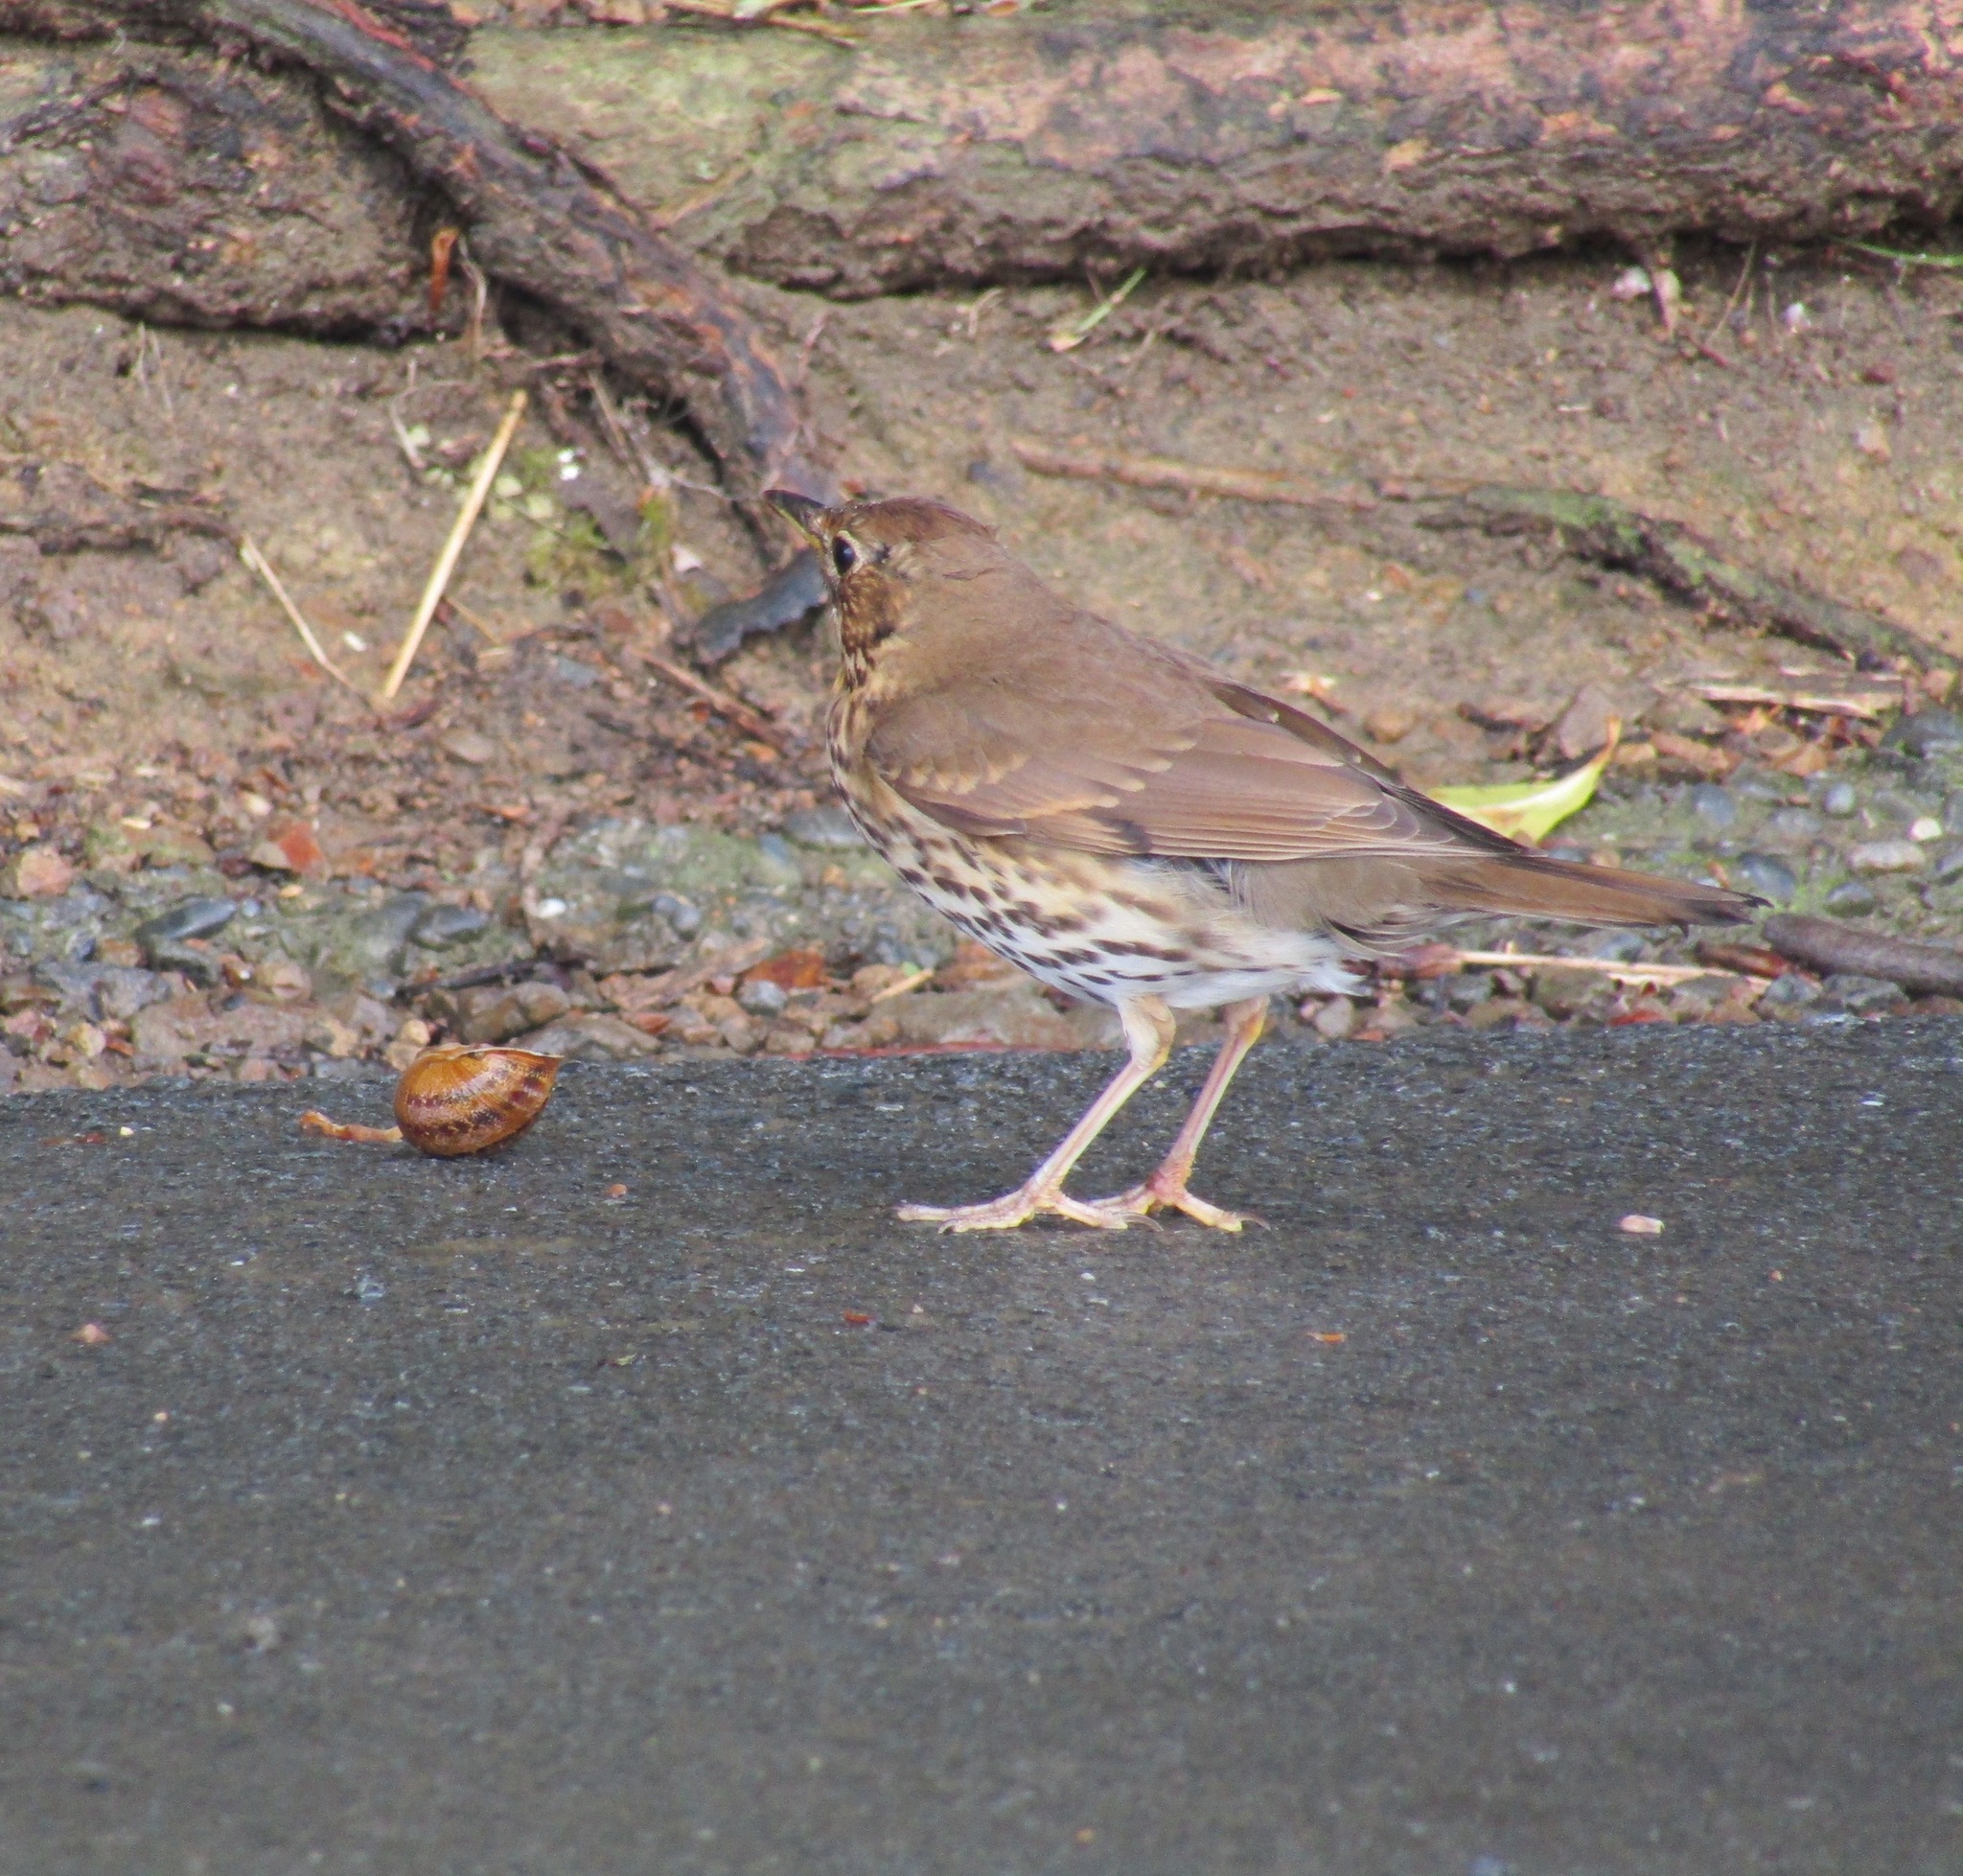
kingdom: Animalia
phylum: Chordata
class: Aves
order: Passeriformes
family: Turdidae
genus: Turdus
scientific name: Turdus philomelos
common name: Song thrush
